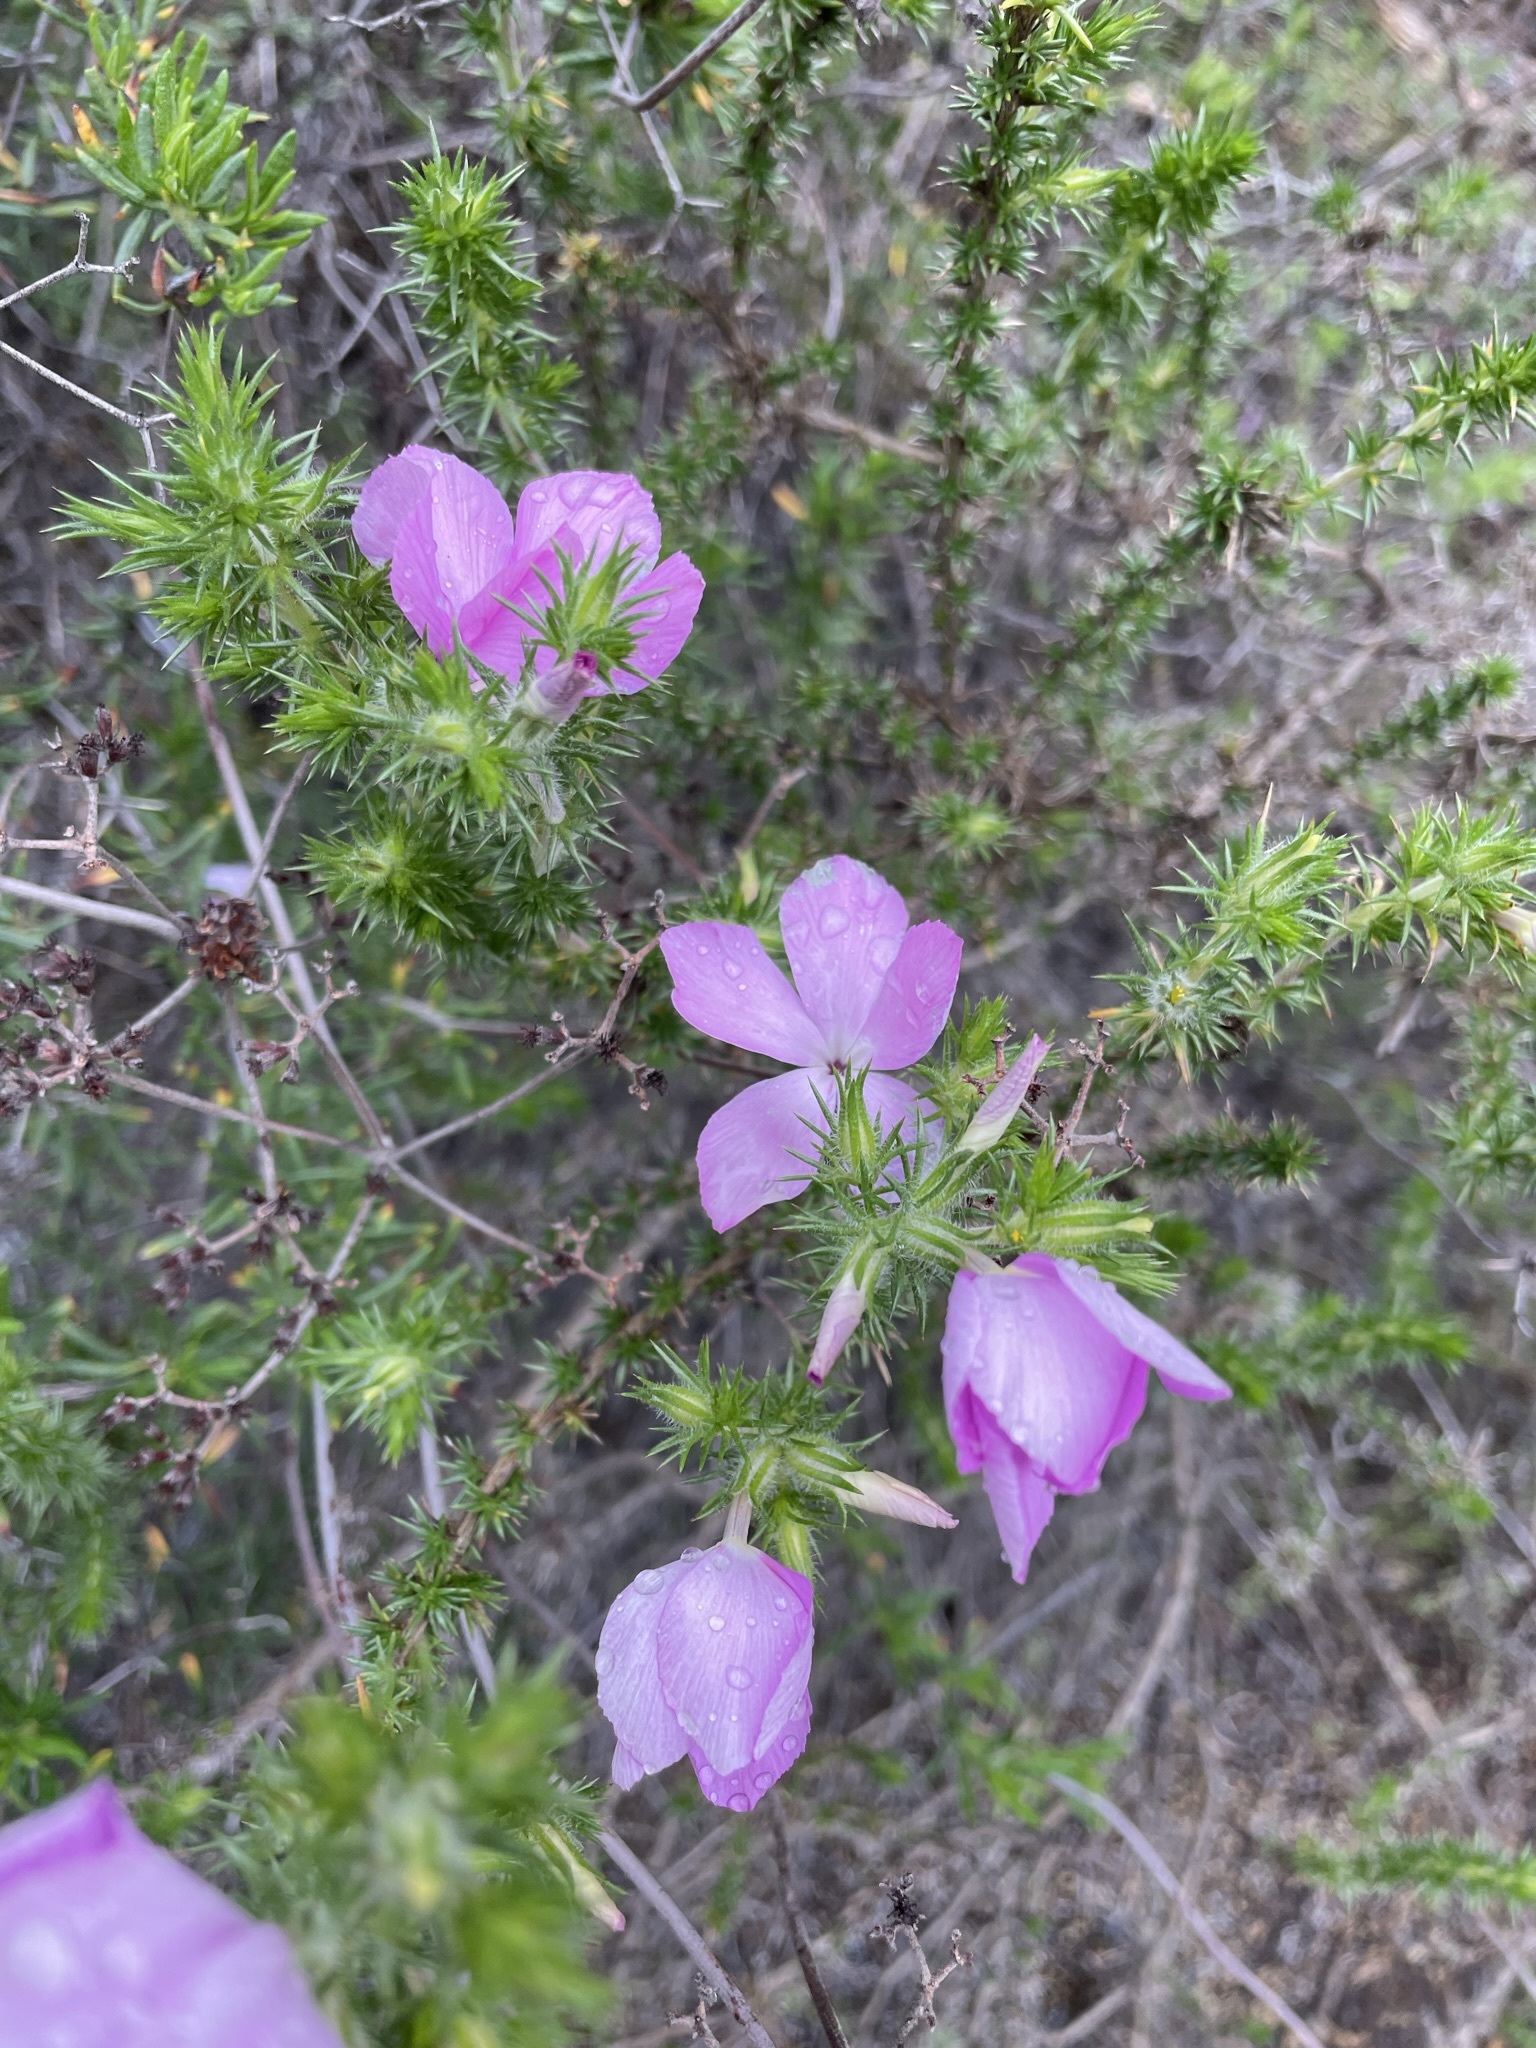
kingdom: Plantae
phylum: Tracheophyta
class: Magnoliopsida
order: Ericales
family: Polemoniaceae
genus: Linanthus
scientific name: Linanthus californicus
